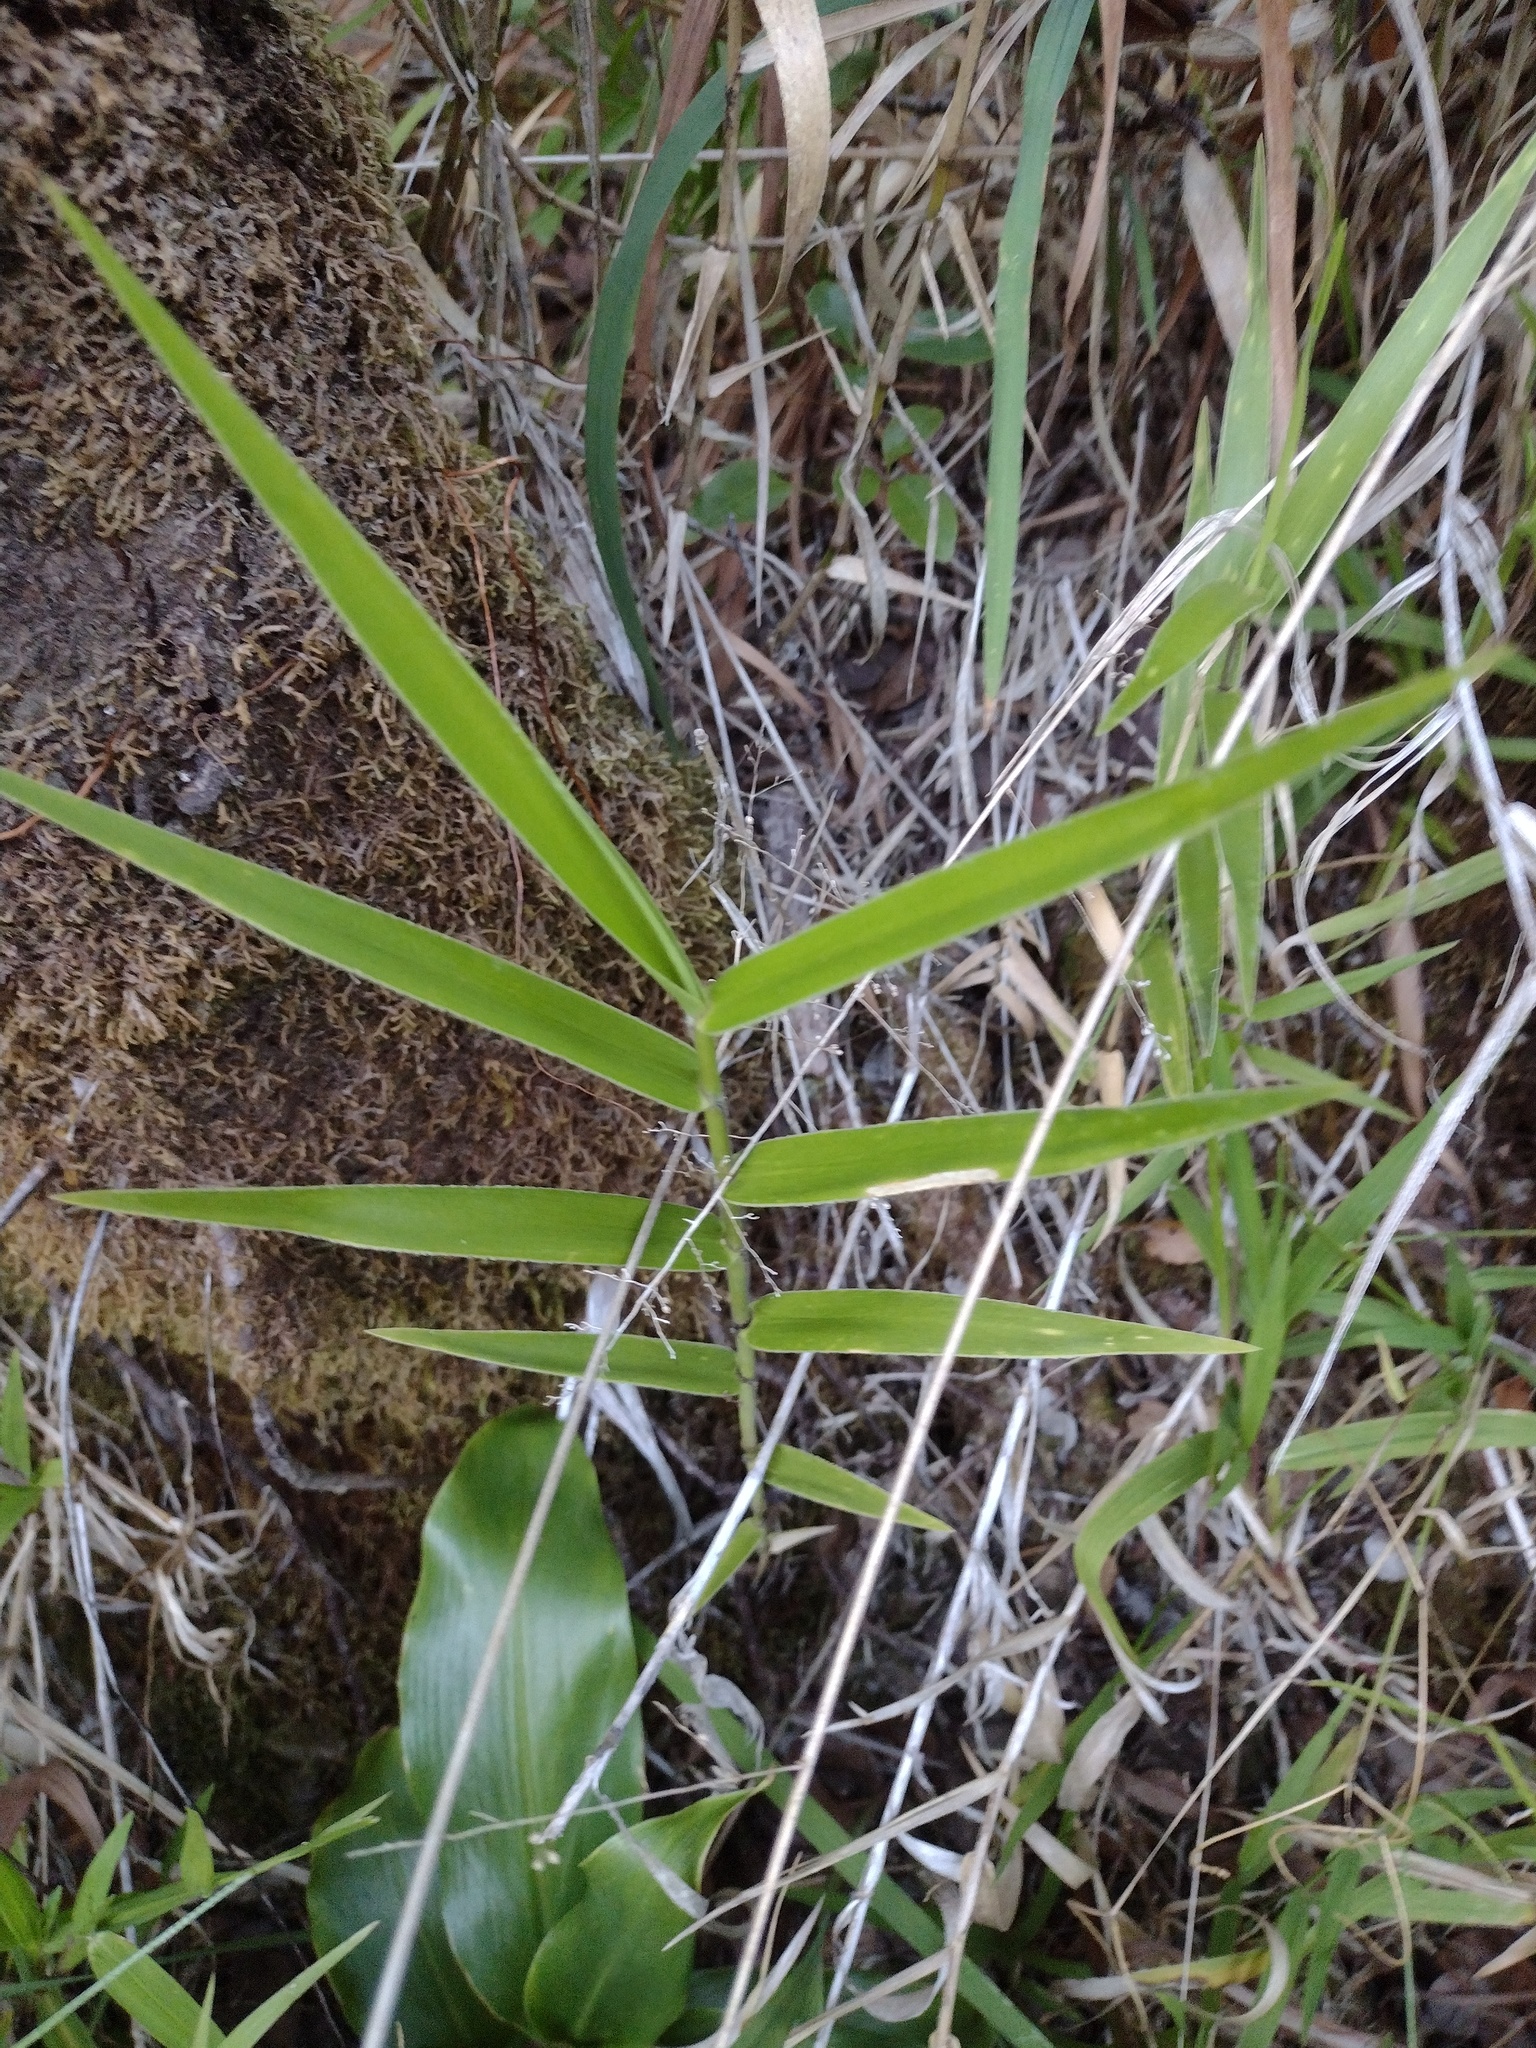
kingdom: Plantae
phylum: Tracheophyta
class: Liliopsida
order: Poales
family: Poaceae
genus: Isachne
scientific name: Isachne distichophylla
